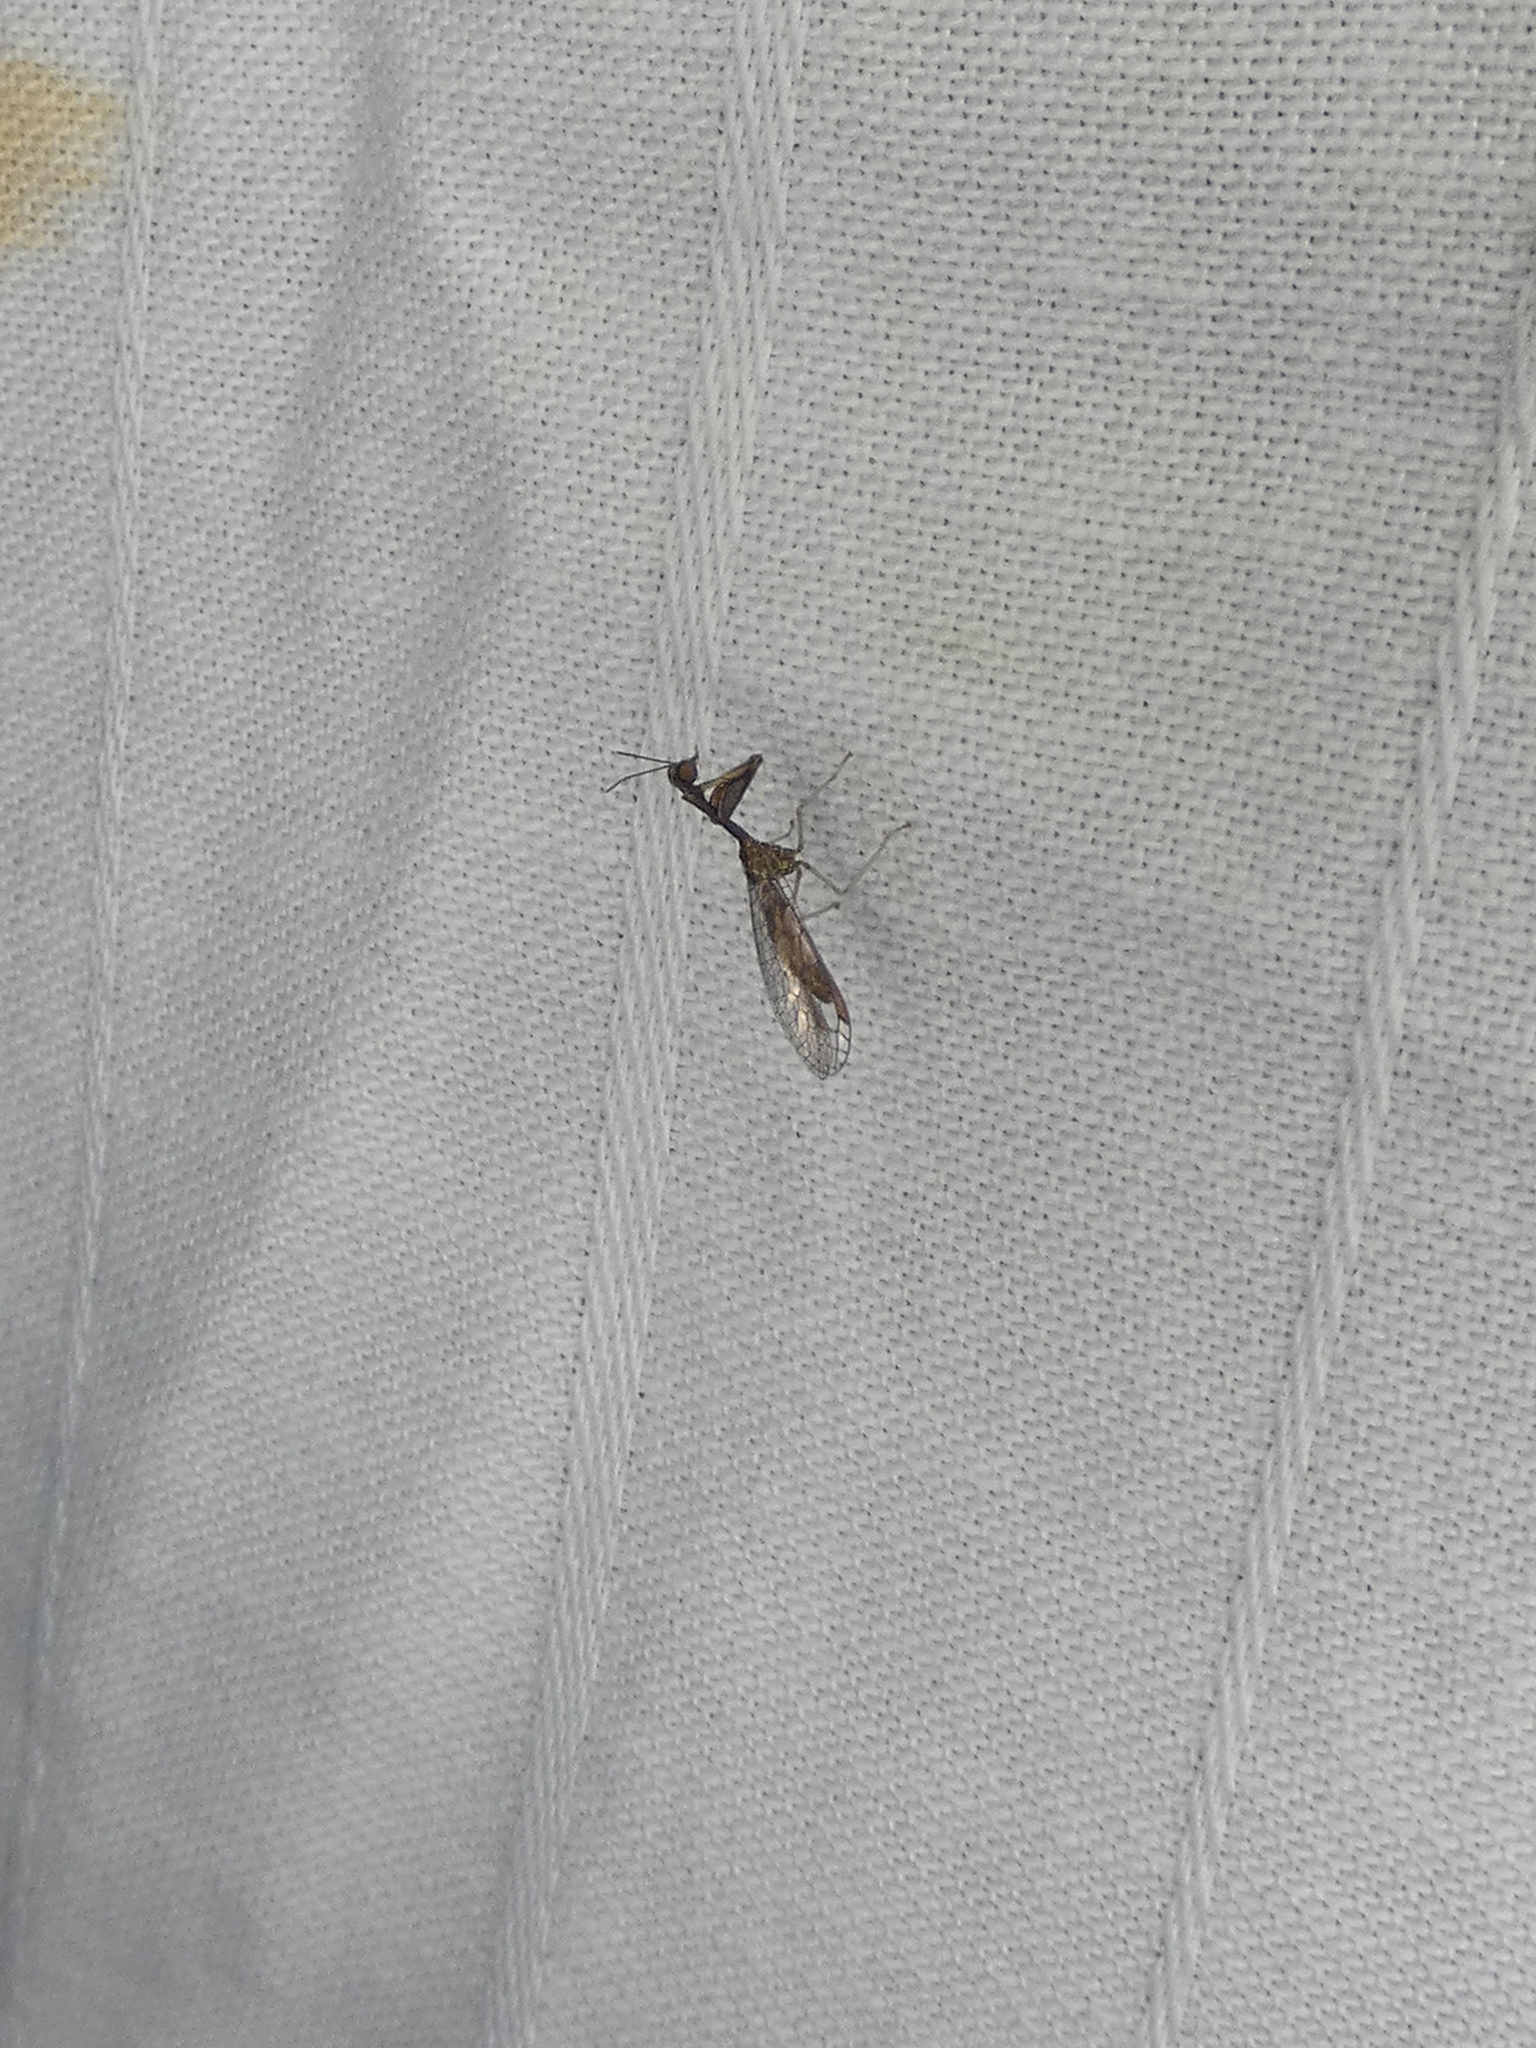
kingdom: Animalia
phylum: Arthropoda
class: Insecta
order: Neuroptera
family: Mantispidae
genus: Leptomantispa
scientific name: Leptomantispa pulchella
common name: Stevens's mantidfly
